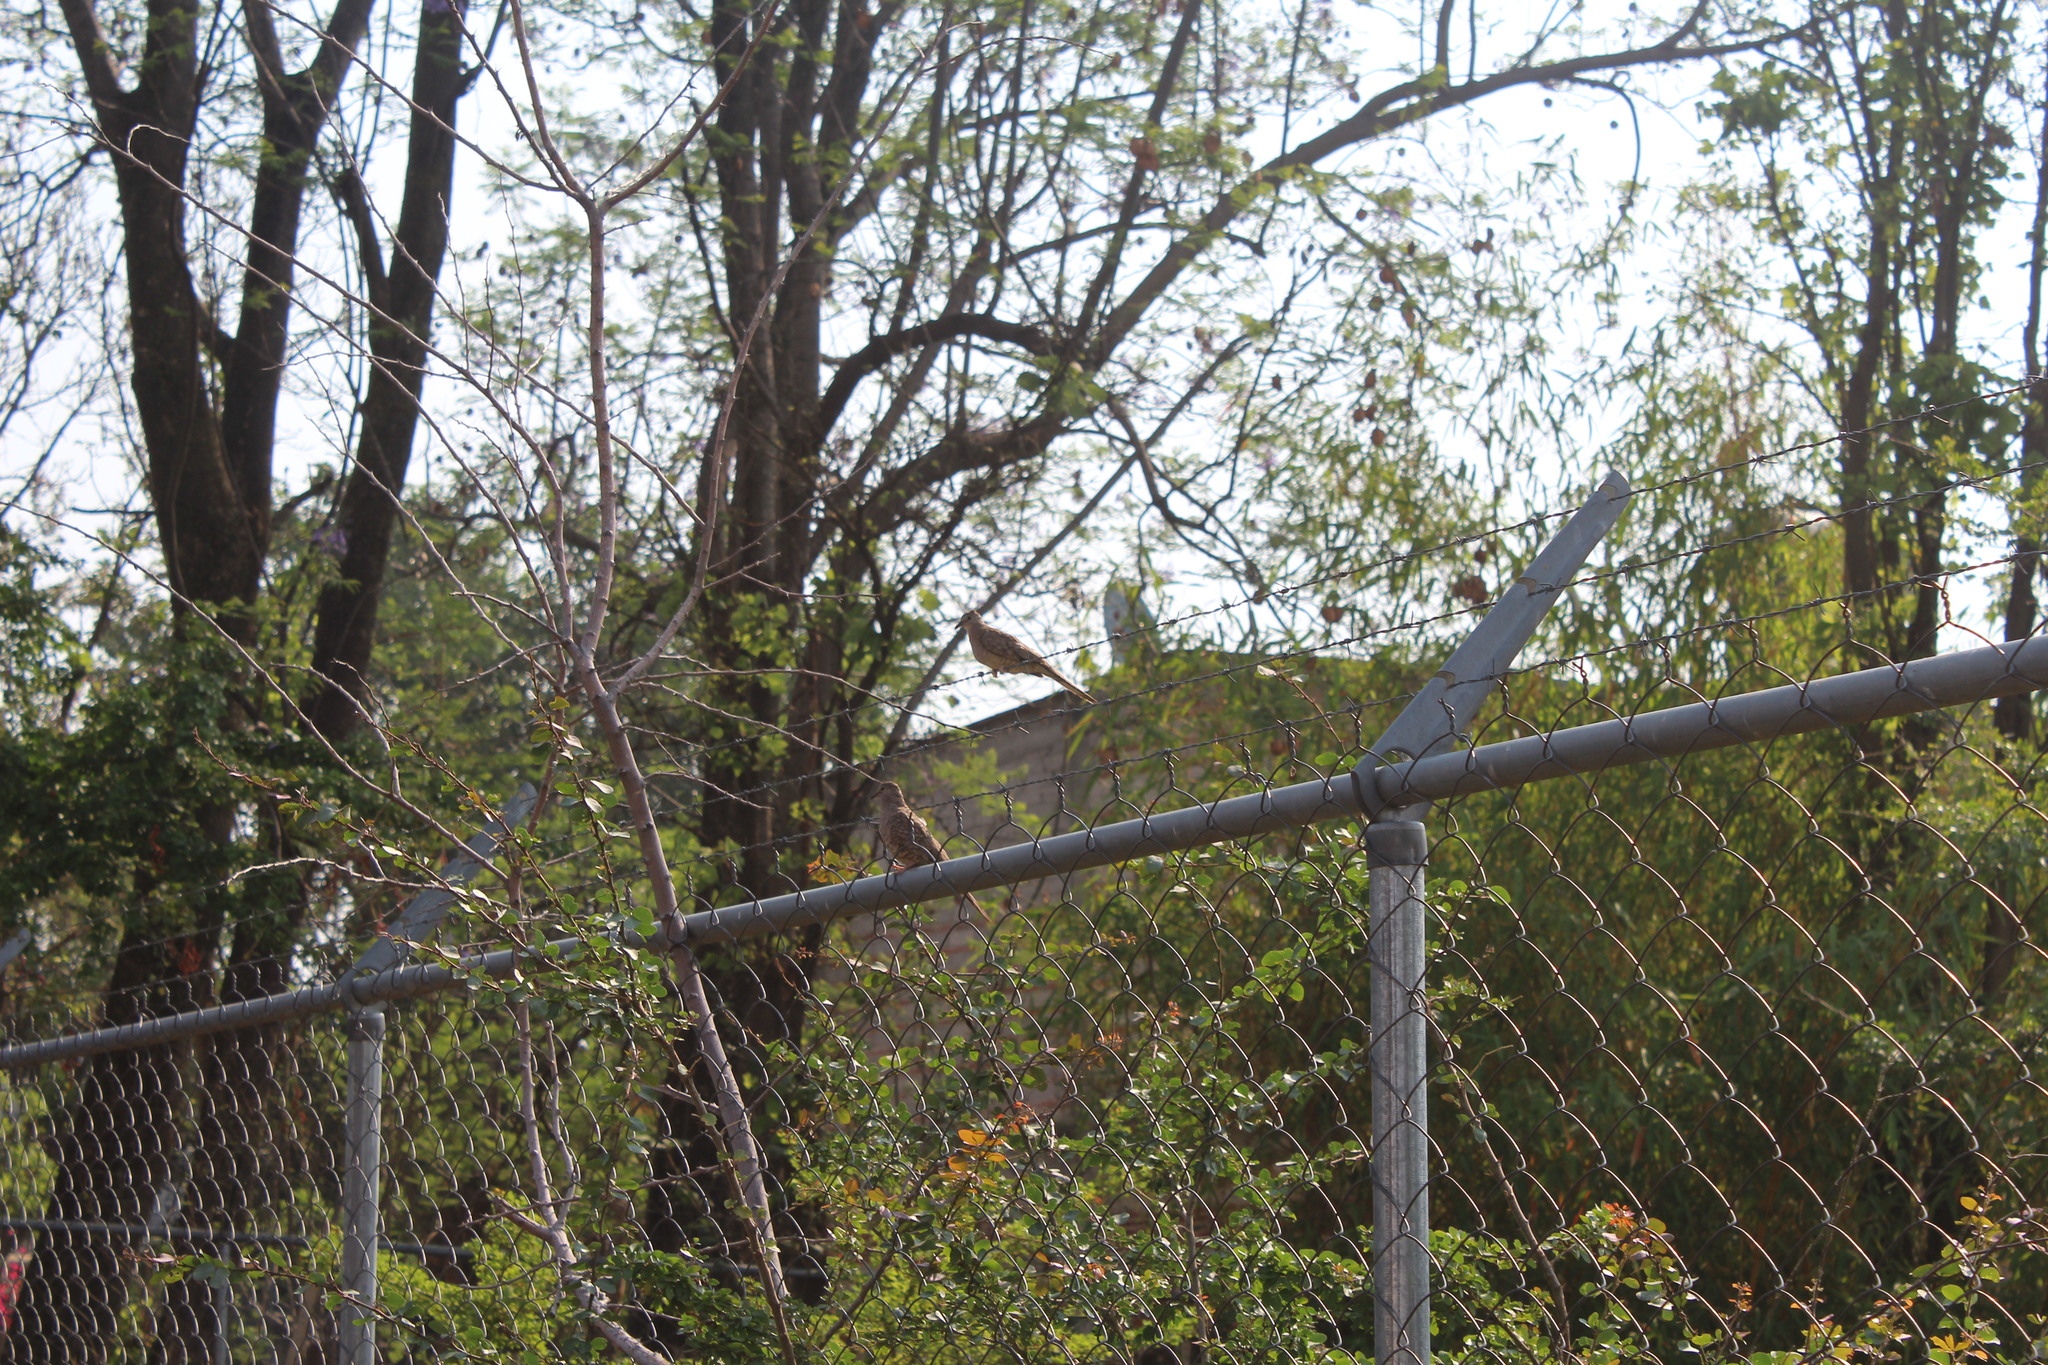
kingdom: Animalia
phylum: Chordata
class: Aves
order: Columbiformes
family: Columbidae
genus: Columbina
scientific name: Columbina inca
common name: Inca dove
